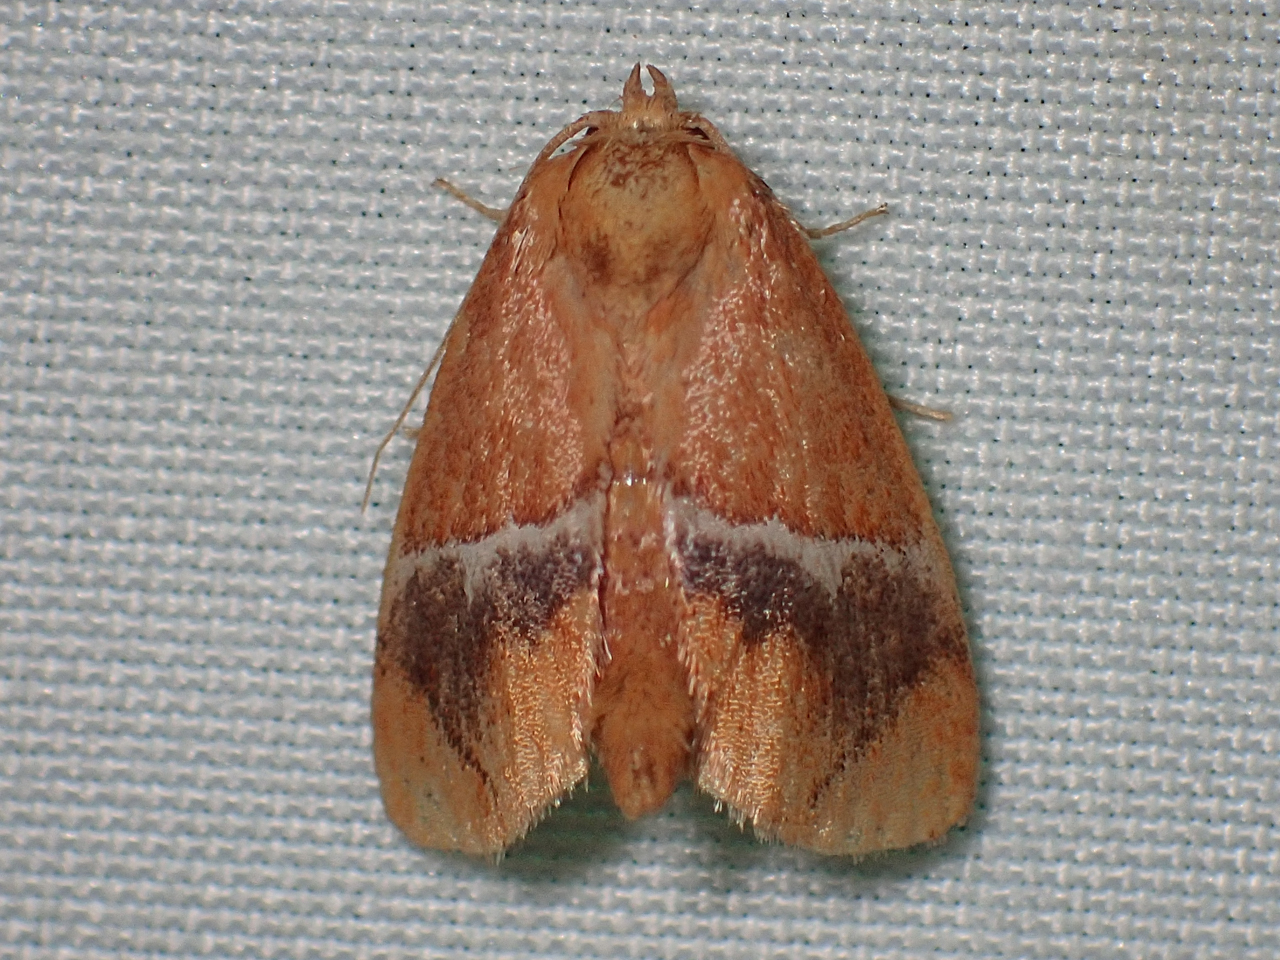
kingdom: Animalia
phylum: Arthropoda
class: Insecta
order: Lepidoptera
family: Limacodidae
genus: Lithacodes
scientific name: Lithacodes fasciola
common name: Yellow-shouldered slug moth
